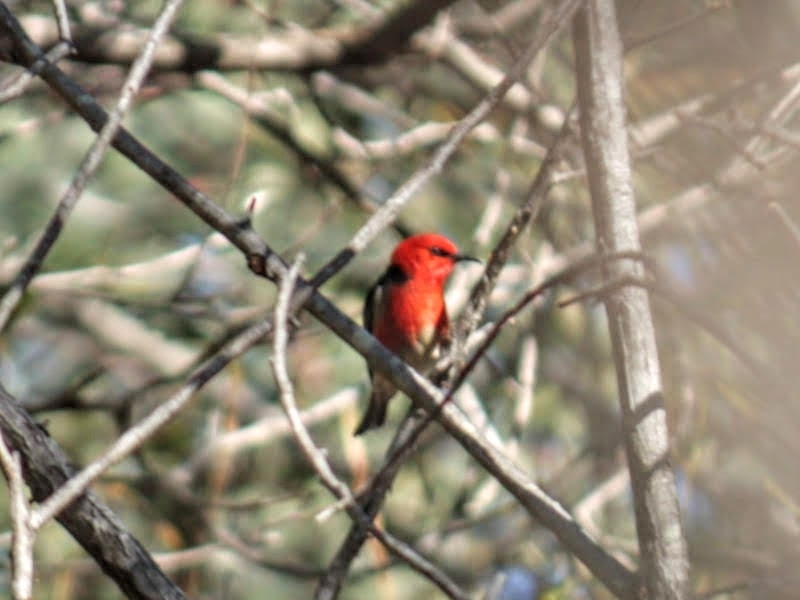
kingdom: Animalia
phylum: Chordata
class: Aves
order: Passeriformes
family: Meliphagidae
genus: Myzomela
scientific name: Myzomela sanguinolenta
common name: Scarlet myzomela
